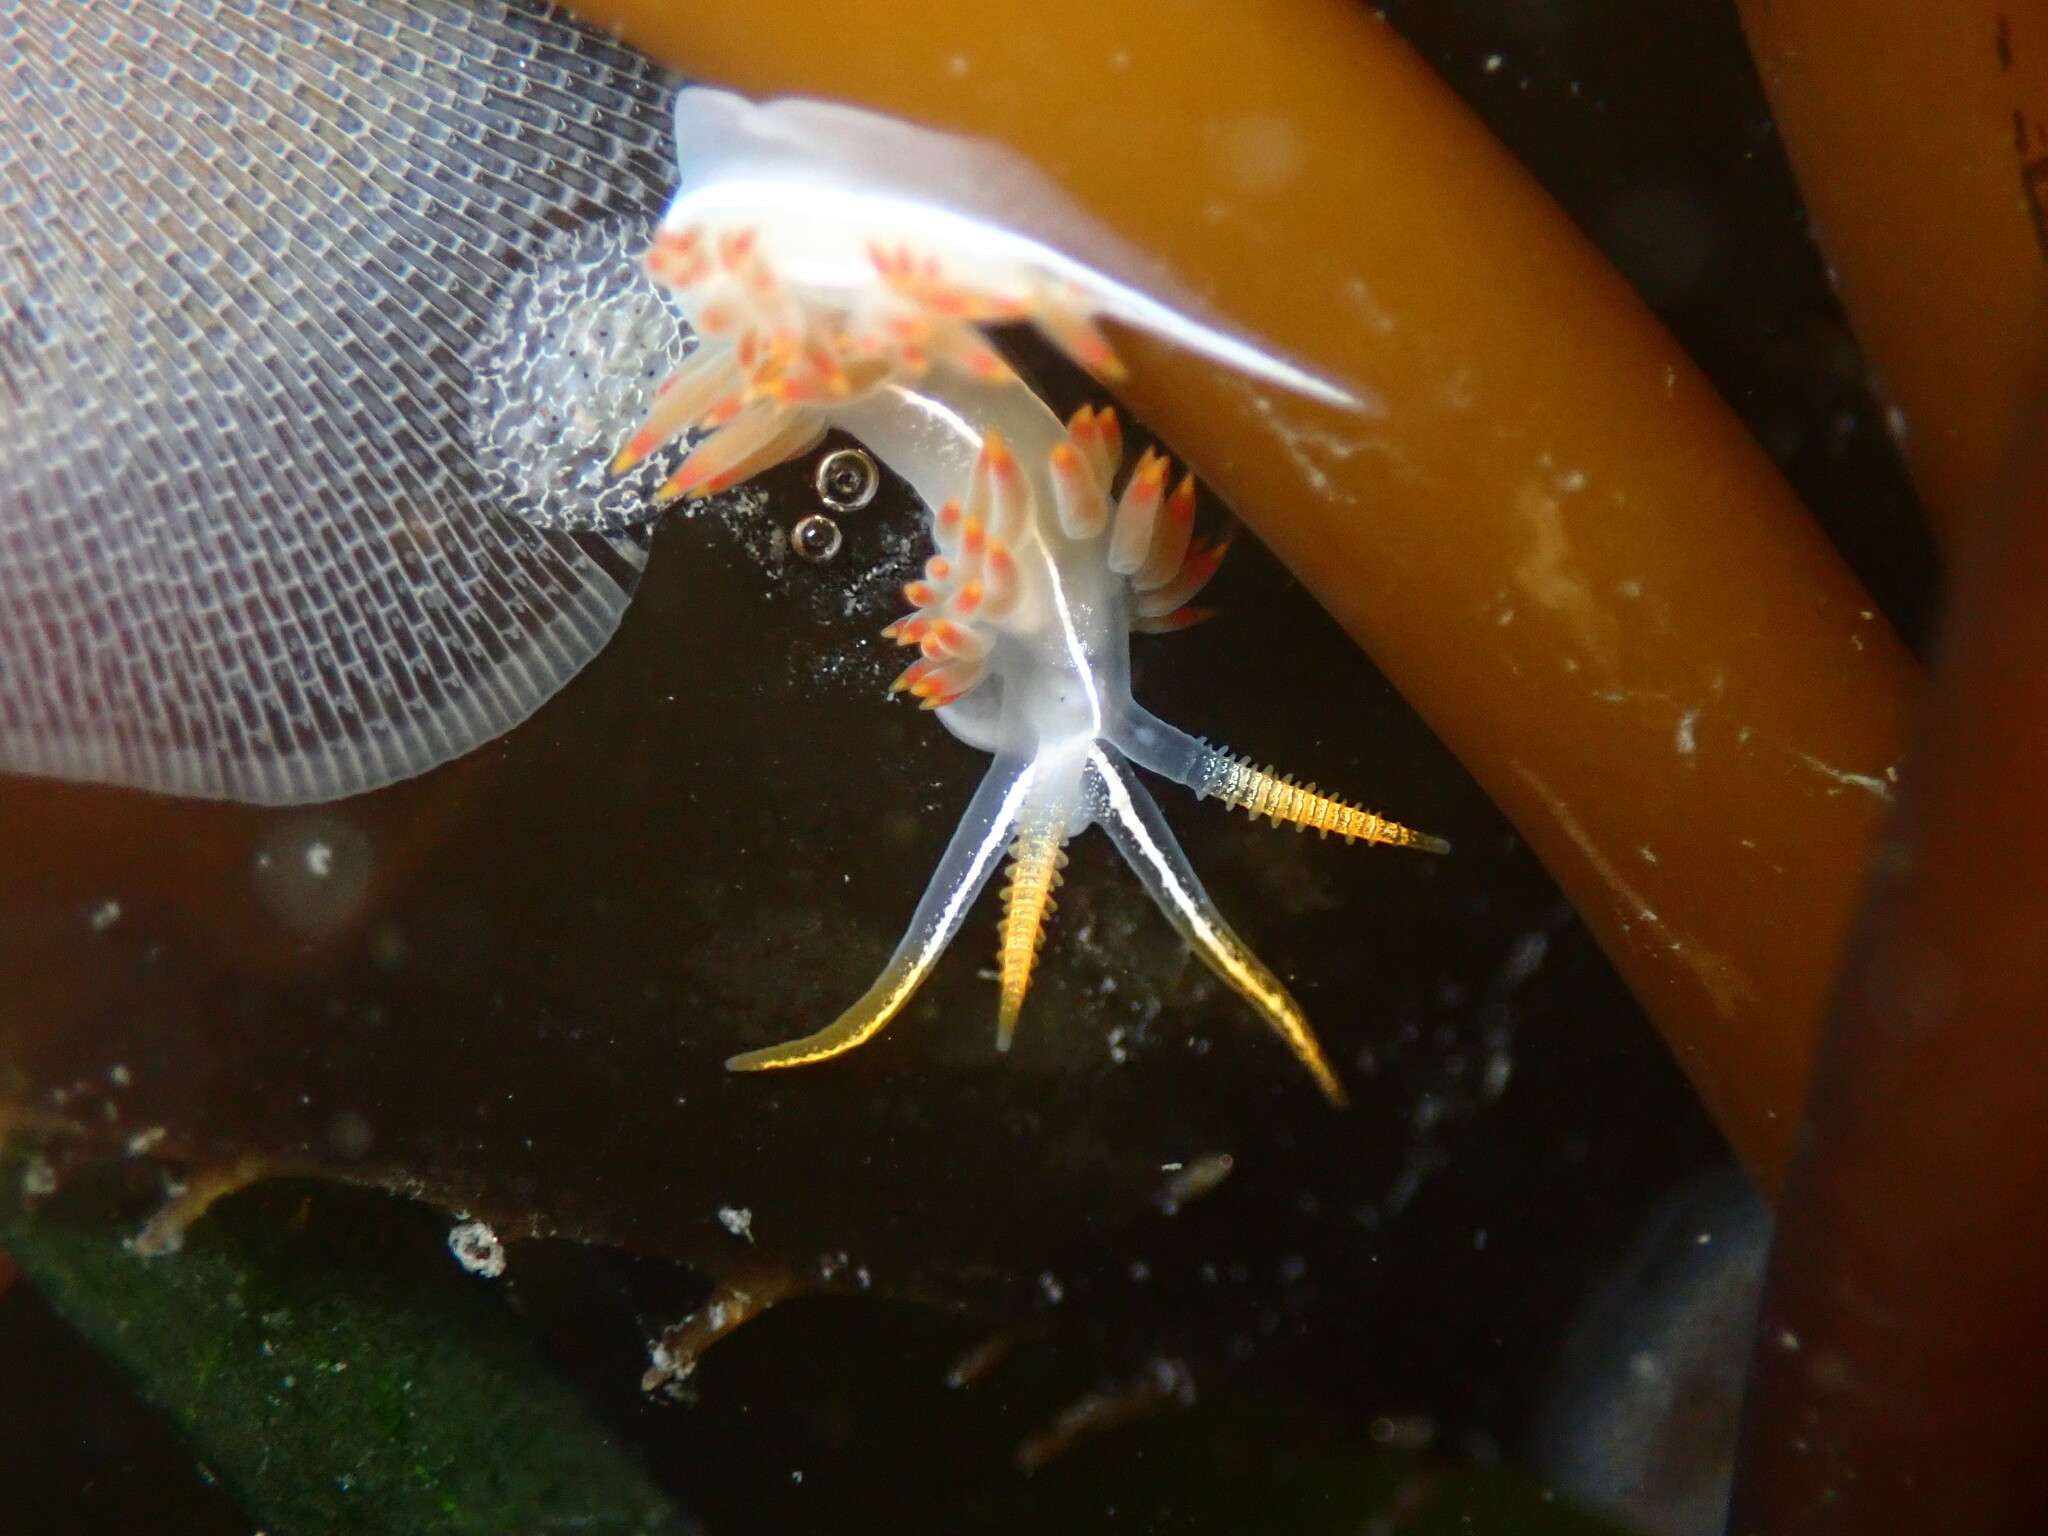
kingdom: Animalia
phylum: Mollusca
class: Gastropoda
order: Nudibranchia
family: Coryphellidae
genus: Coryphella
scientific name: Coryphella trilineata
